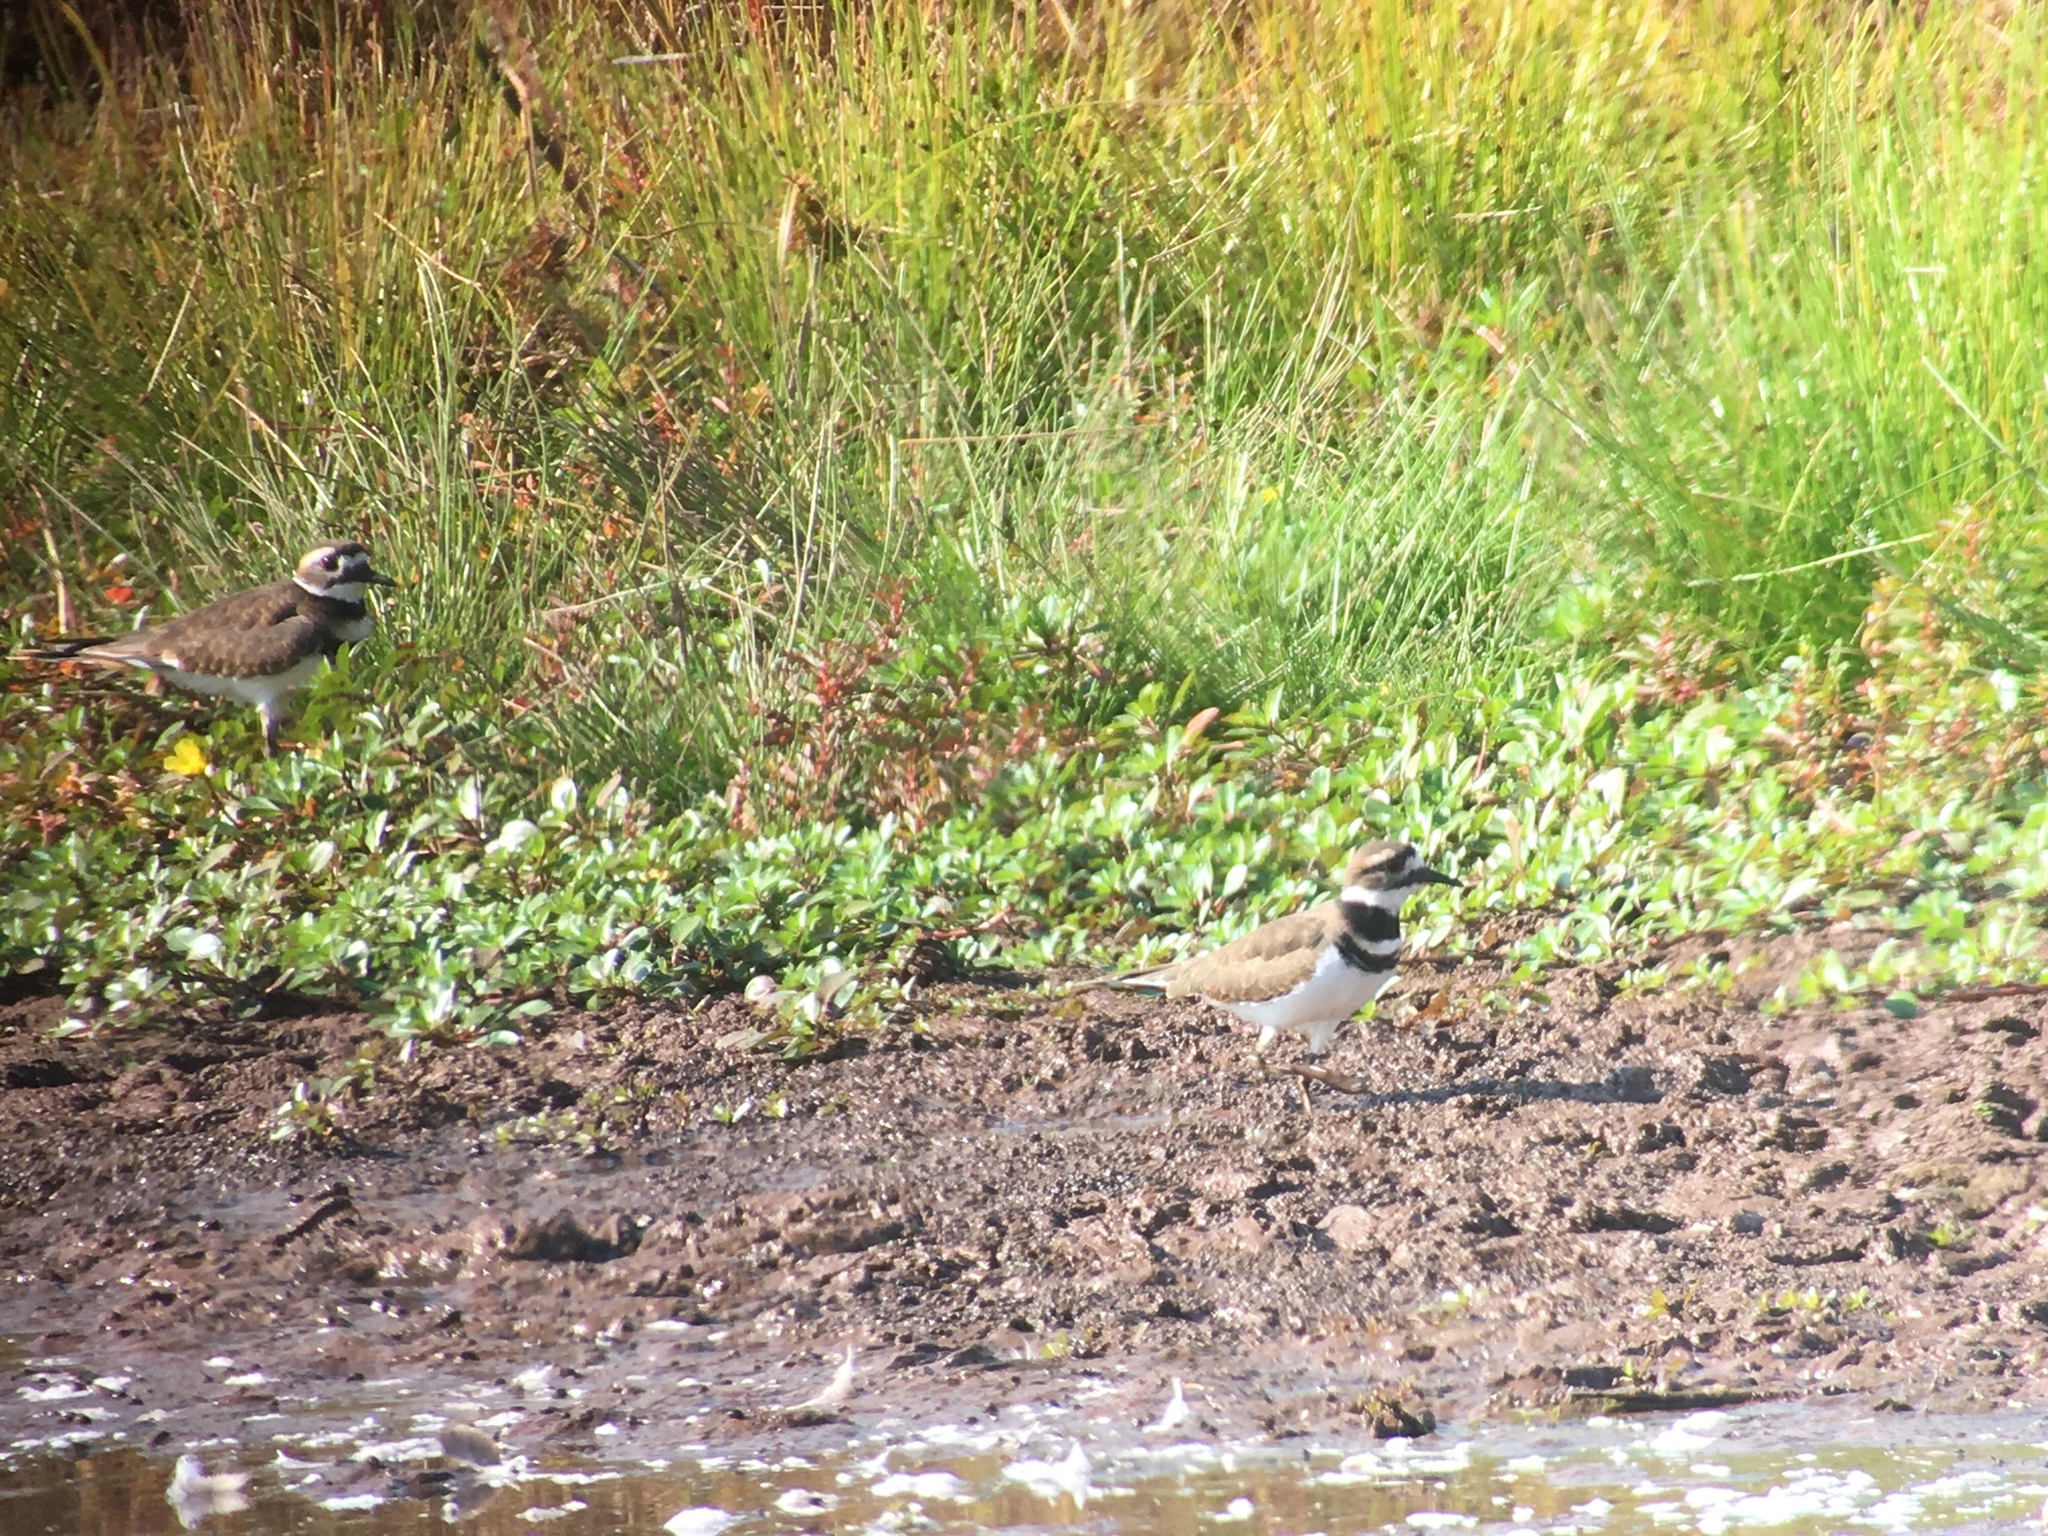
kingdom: Animalia
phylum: Chordata
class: Aves
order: Charadriiformes
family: Charadriidae
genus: Charadrius
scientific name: Charadrius vociferus
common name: Killdeer
